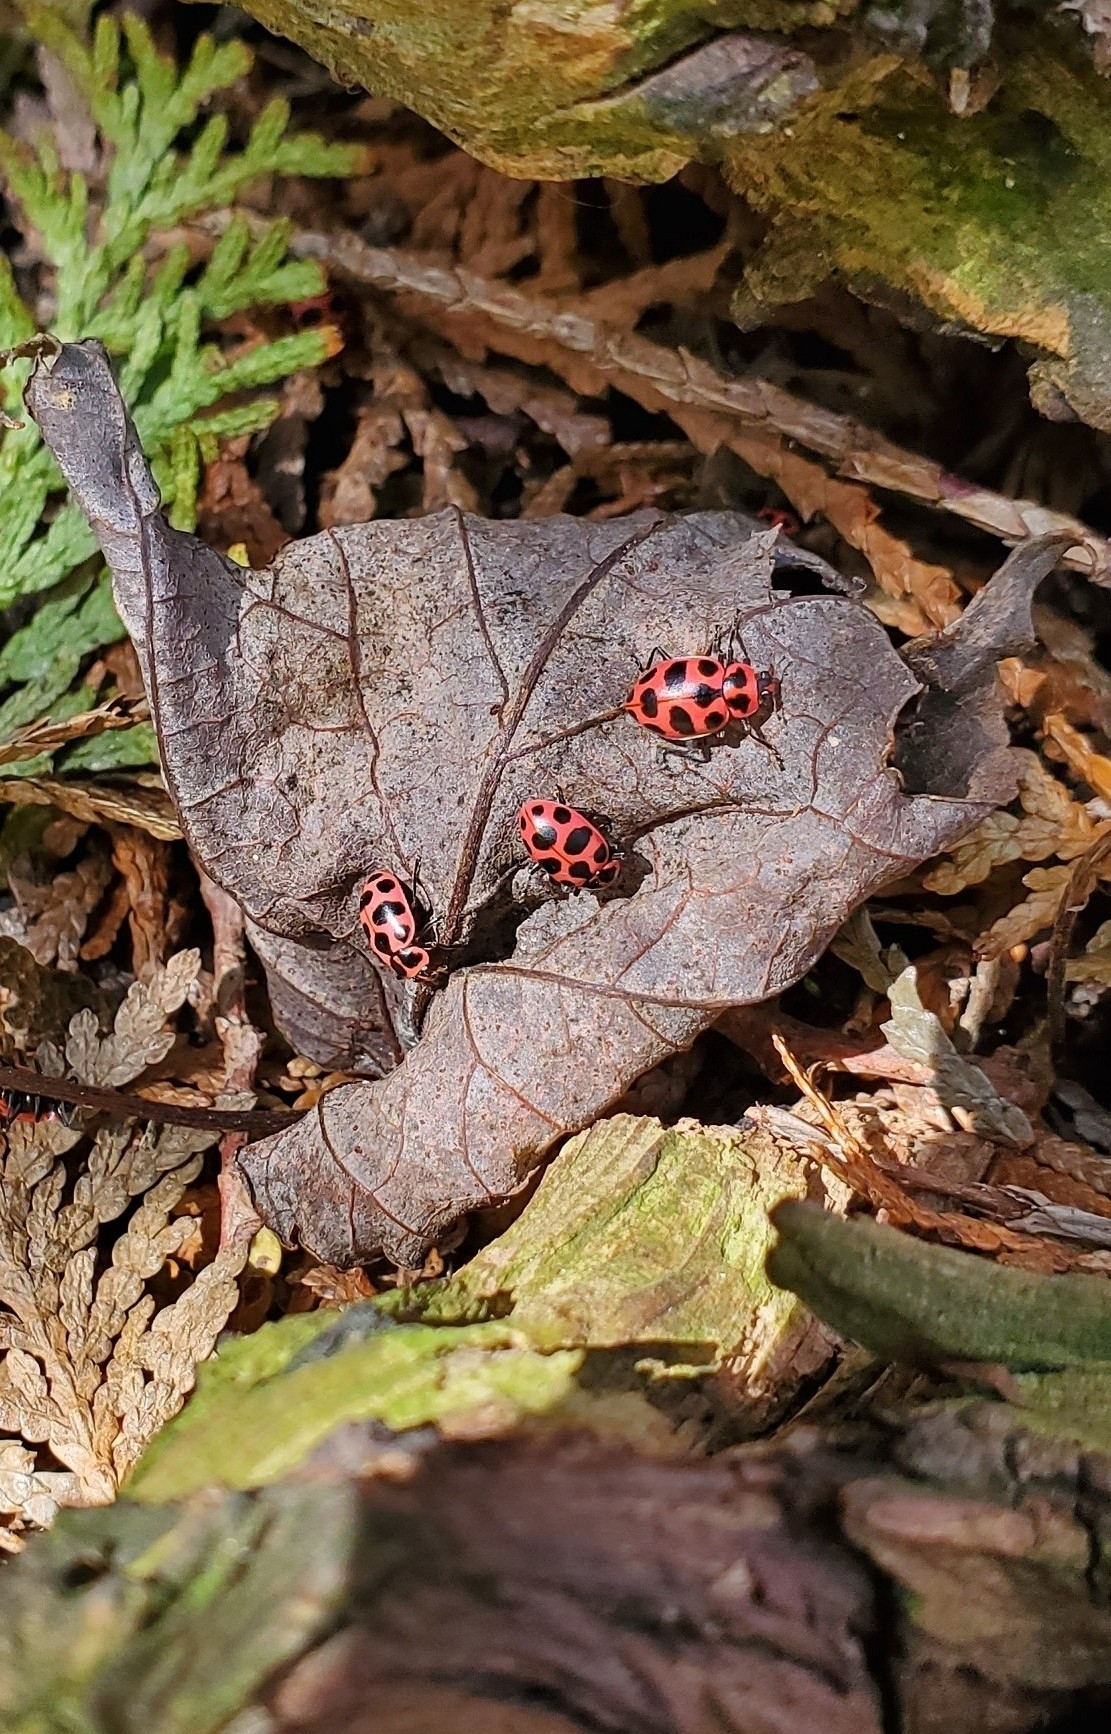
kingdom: Animalia
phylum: Arthropoda
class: Insecta
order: Coleoptera
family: Coccinellidae
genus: Coleomegilla
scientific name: Coleomegilla maculata
